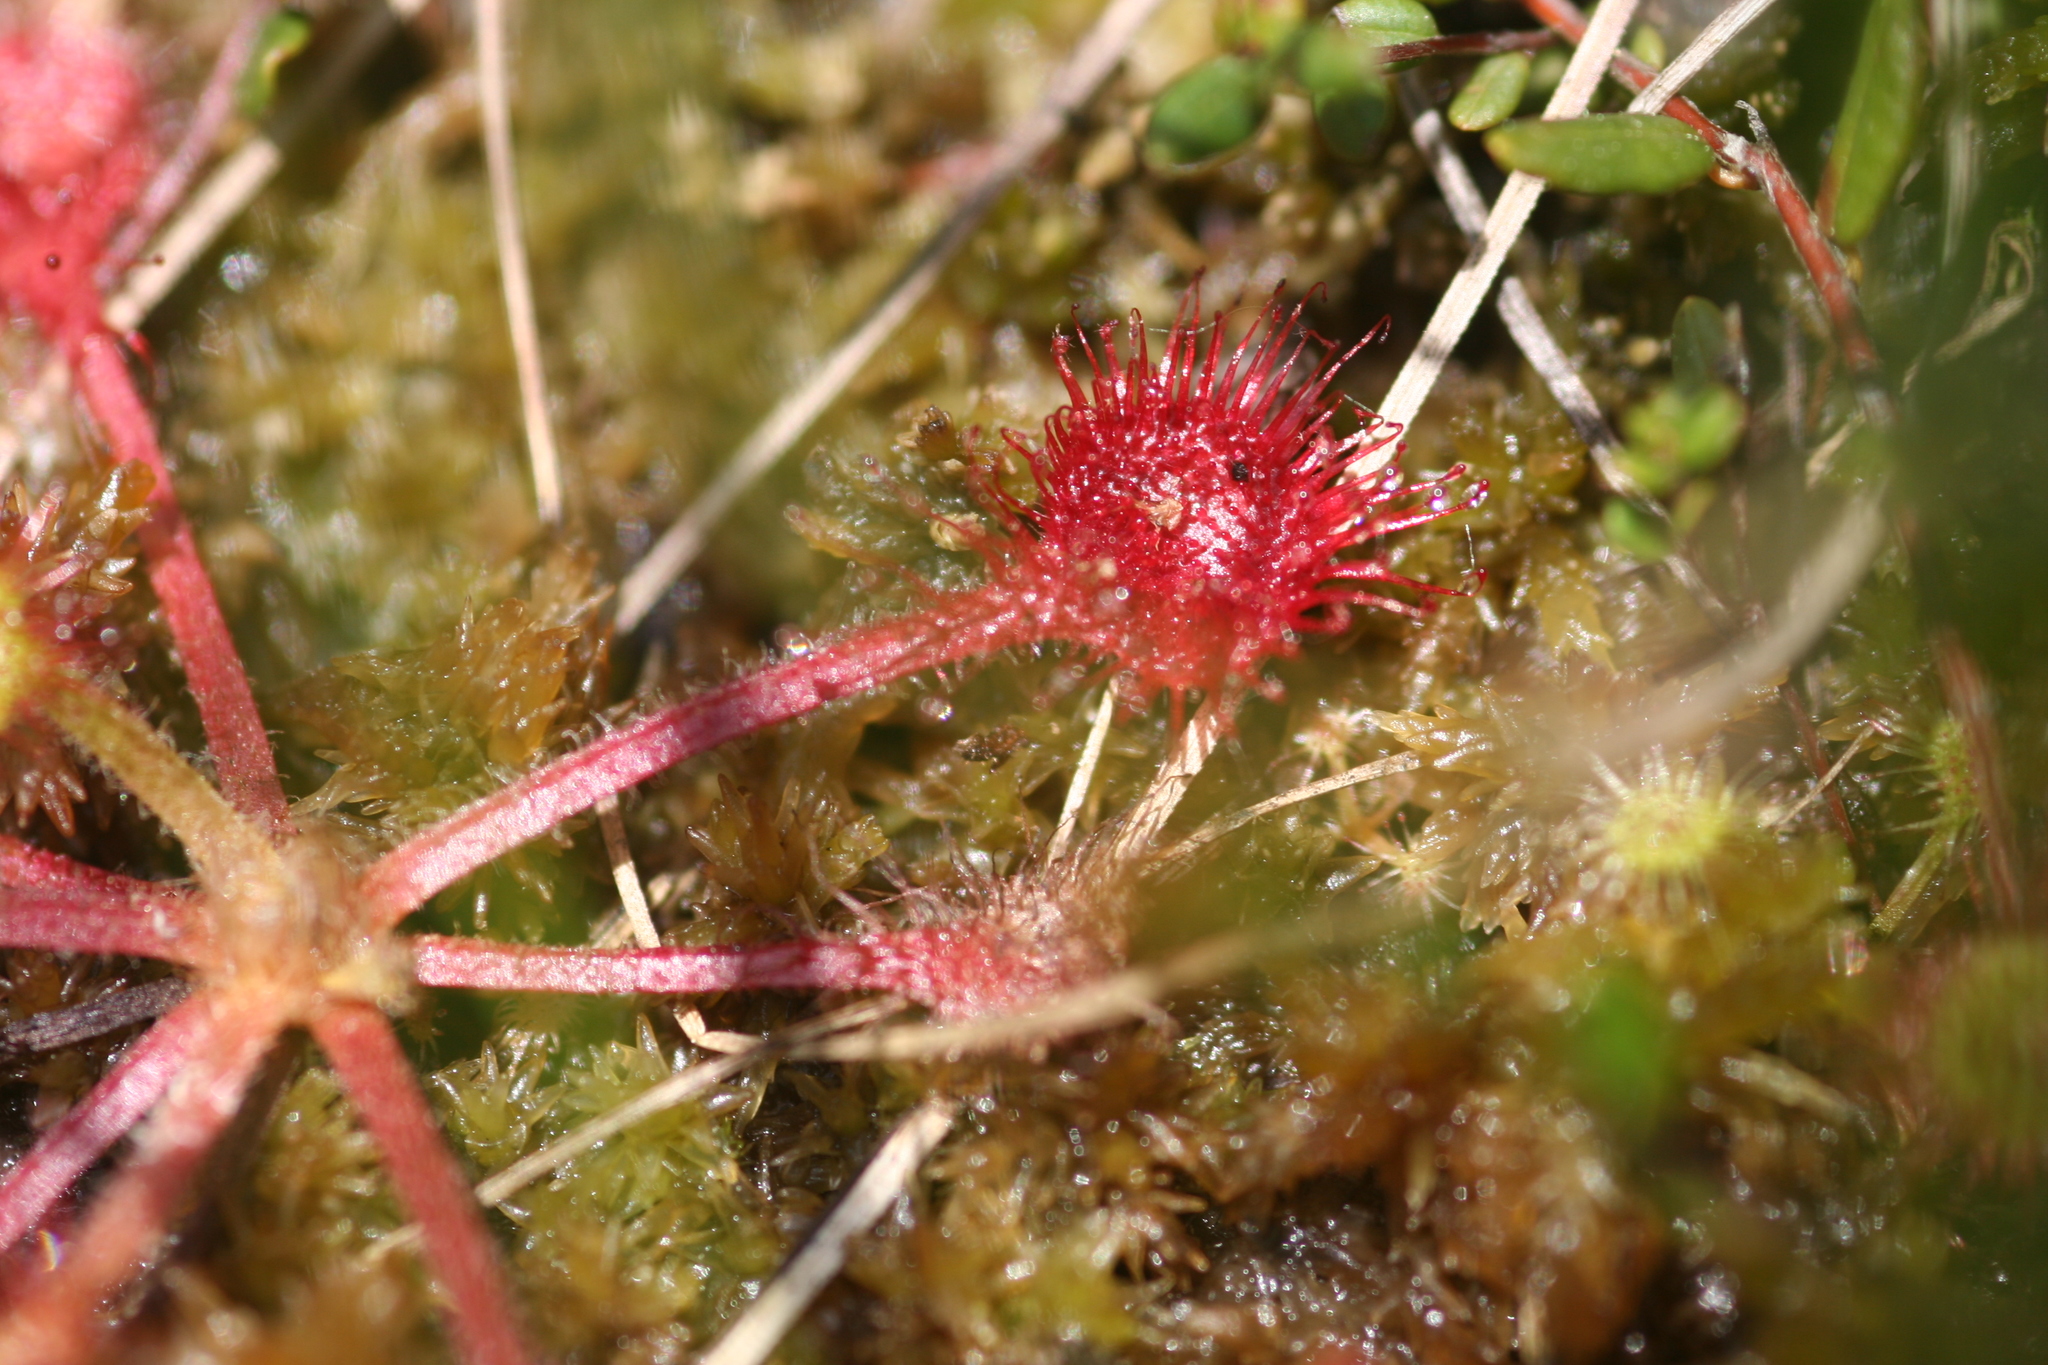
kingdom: Plantae
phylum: Tracheophyta
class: Magnoliopsida
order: Caryophyllales
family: Droseraceae
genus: Drosera
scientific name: Drosera rotundifolia
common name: Round-leaved sundew
